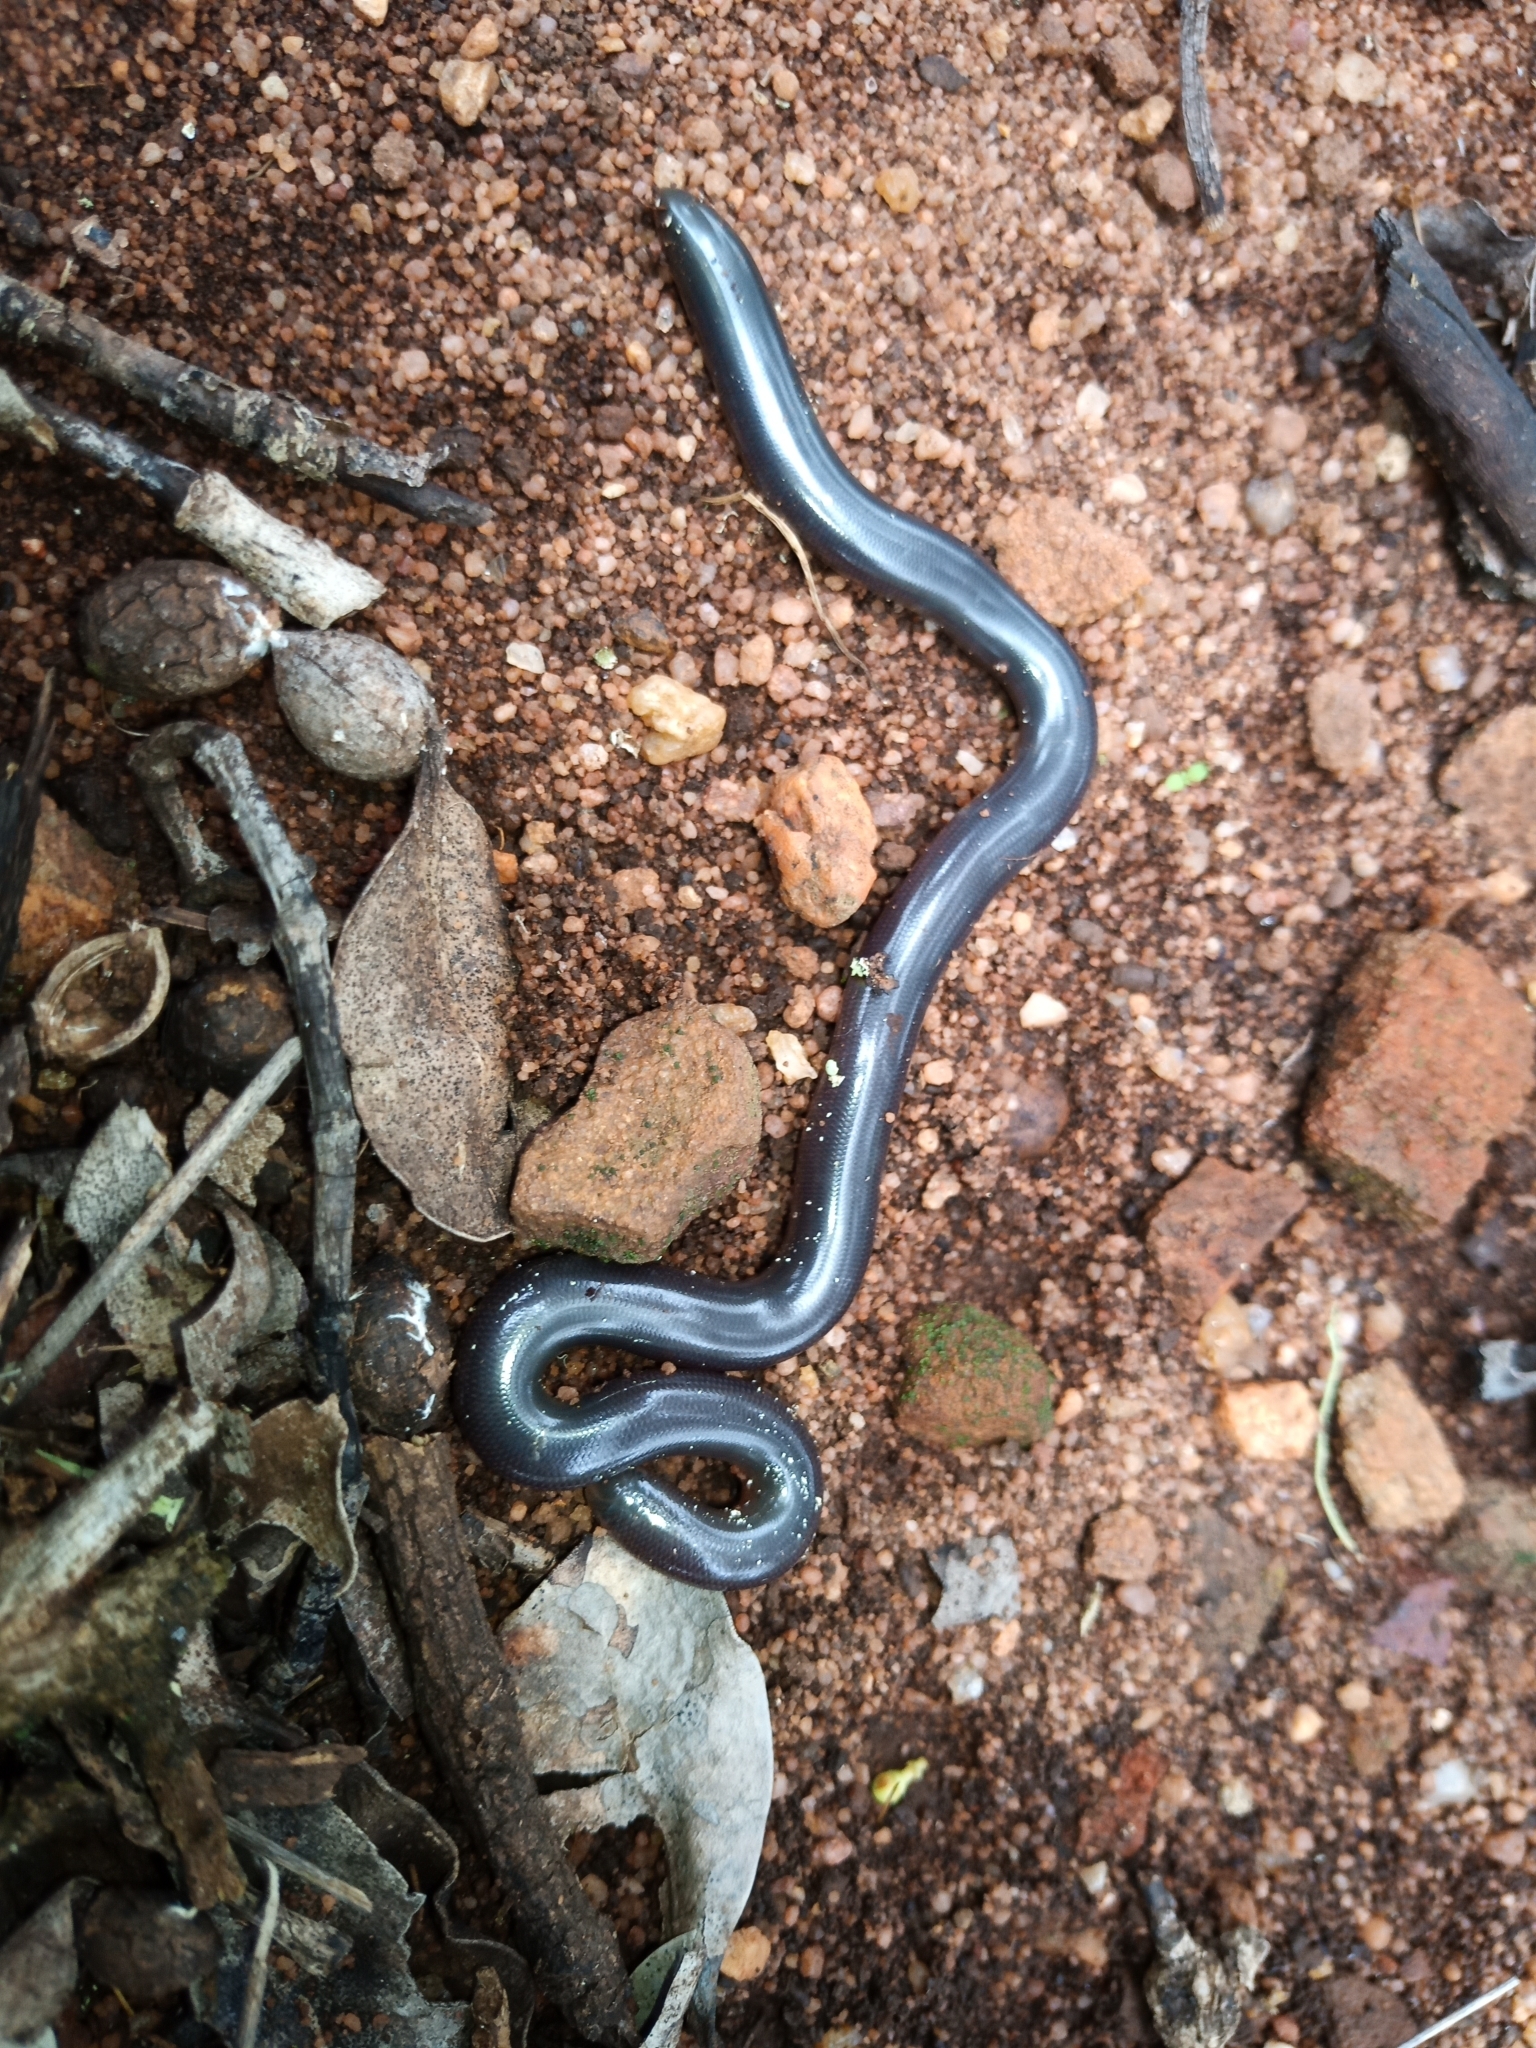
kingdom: Animalia
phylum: Chordata
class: Squamata
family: Typhlopidae
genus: Afrotyphlops
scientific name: Afrotyphlops bibronii
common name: Bibron's blind snake
